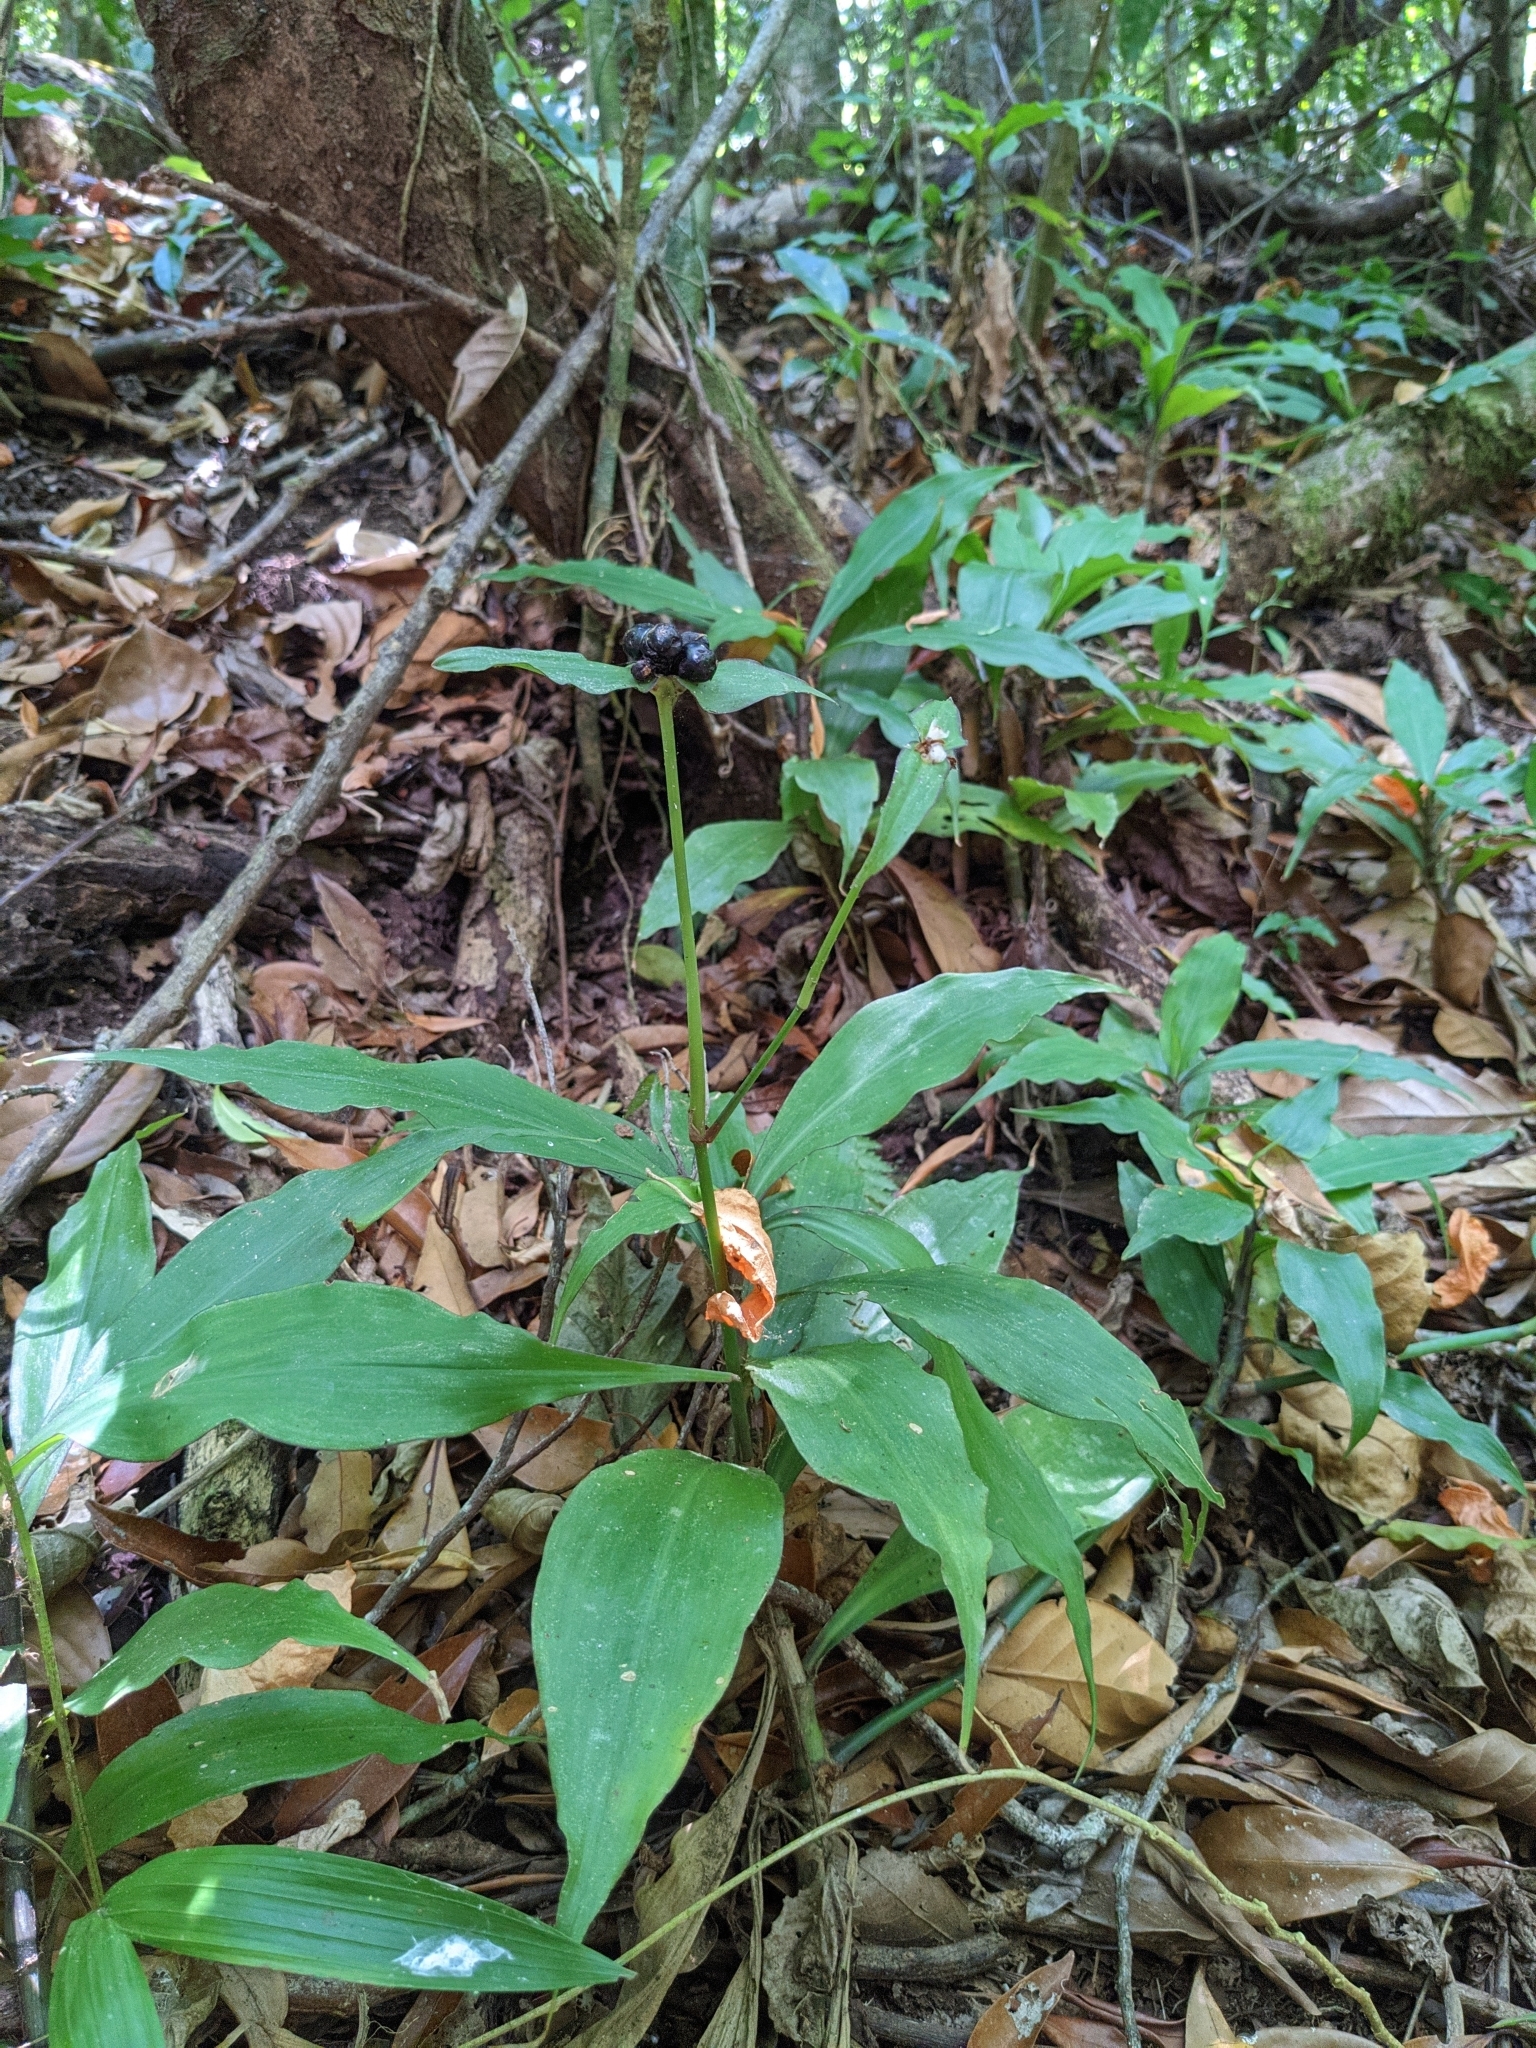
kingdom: Plantae
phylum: Tracheophyta
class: Liliopsida
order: Commelinales
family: Commelinaceae
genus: Tradescantia
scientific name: Tradescantia zanonia
